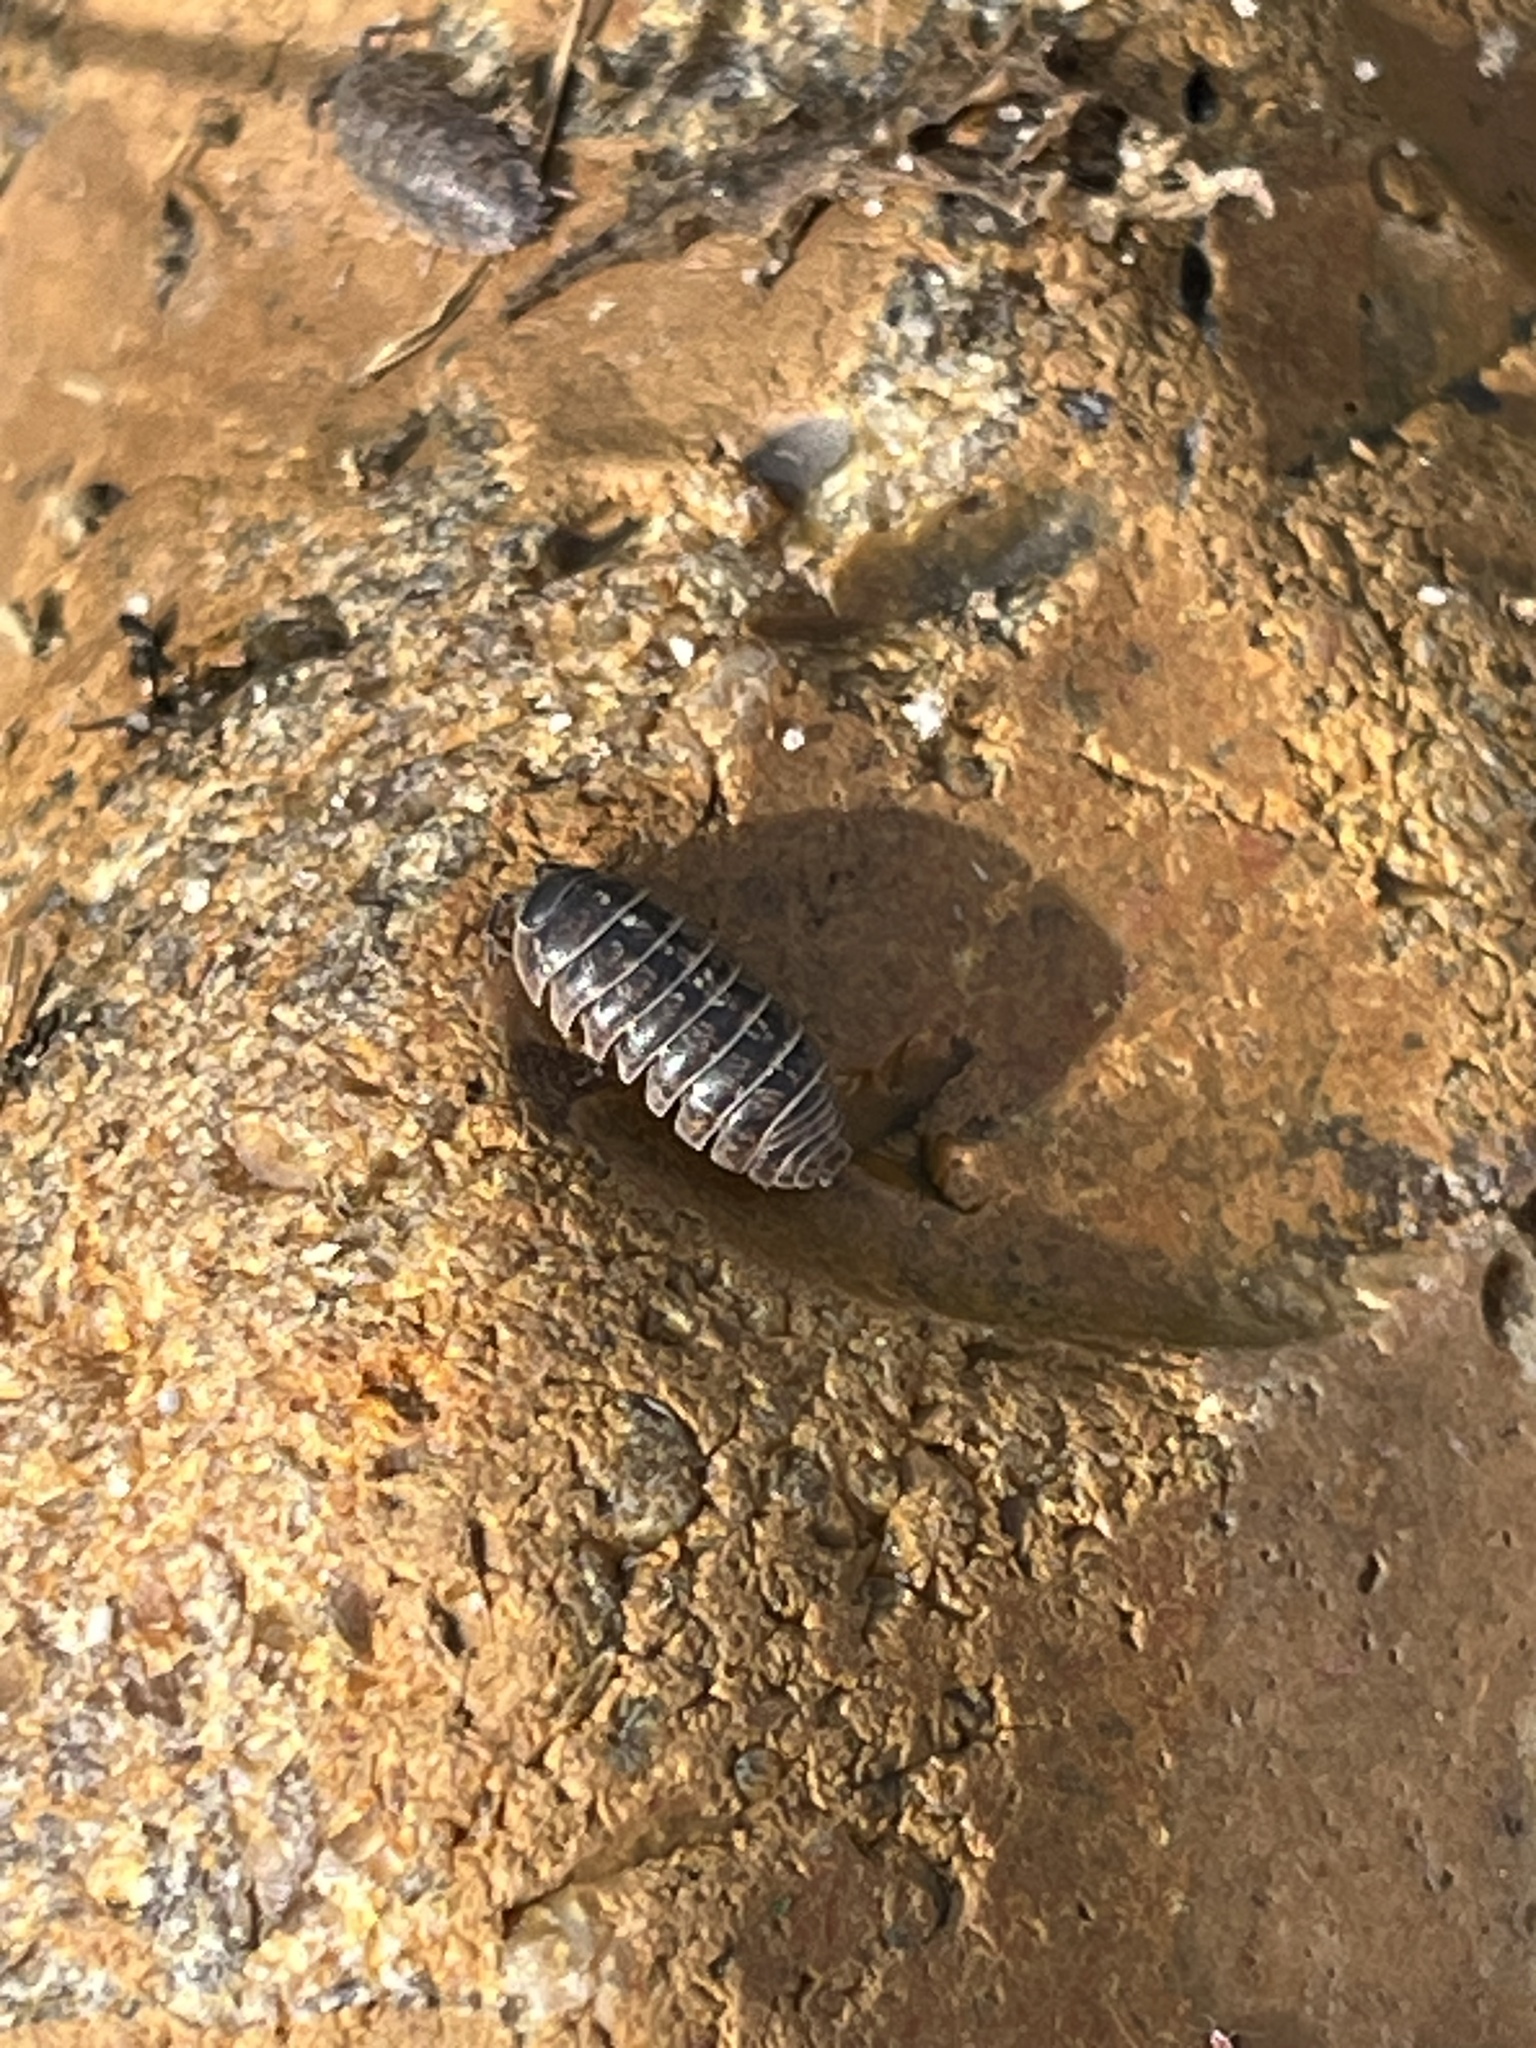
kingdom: Animalia
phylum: Arthropoda
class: Malacostraca
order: Isopoda
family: Armadillidiidae
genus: Armadillidium
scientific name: Armadillidium vulgare
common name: Common pill woodlouse
